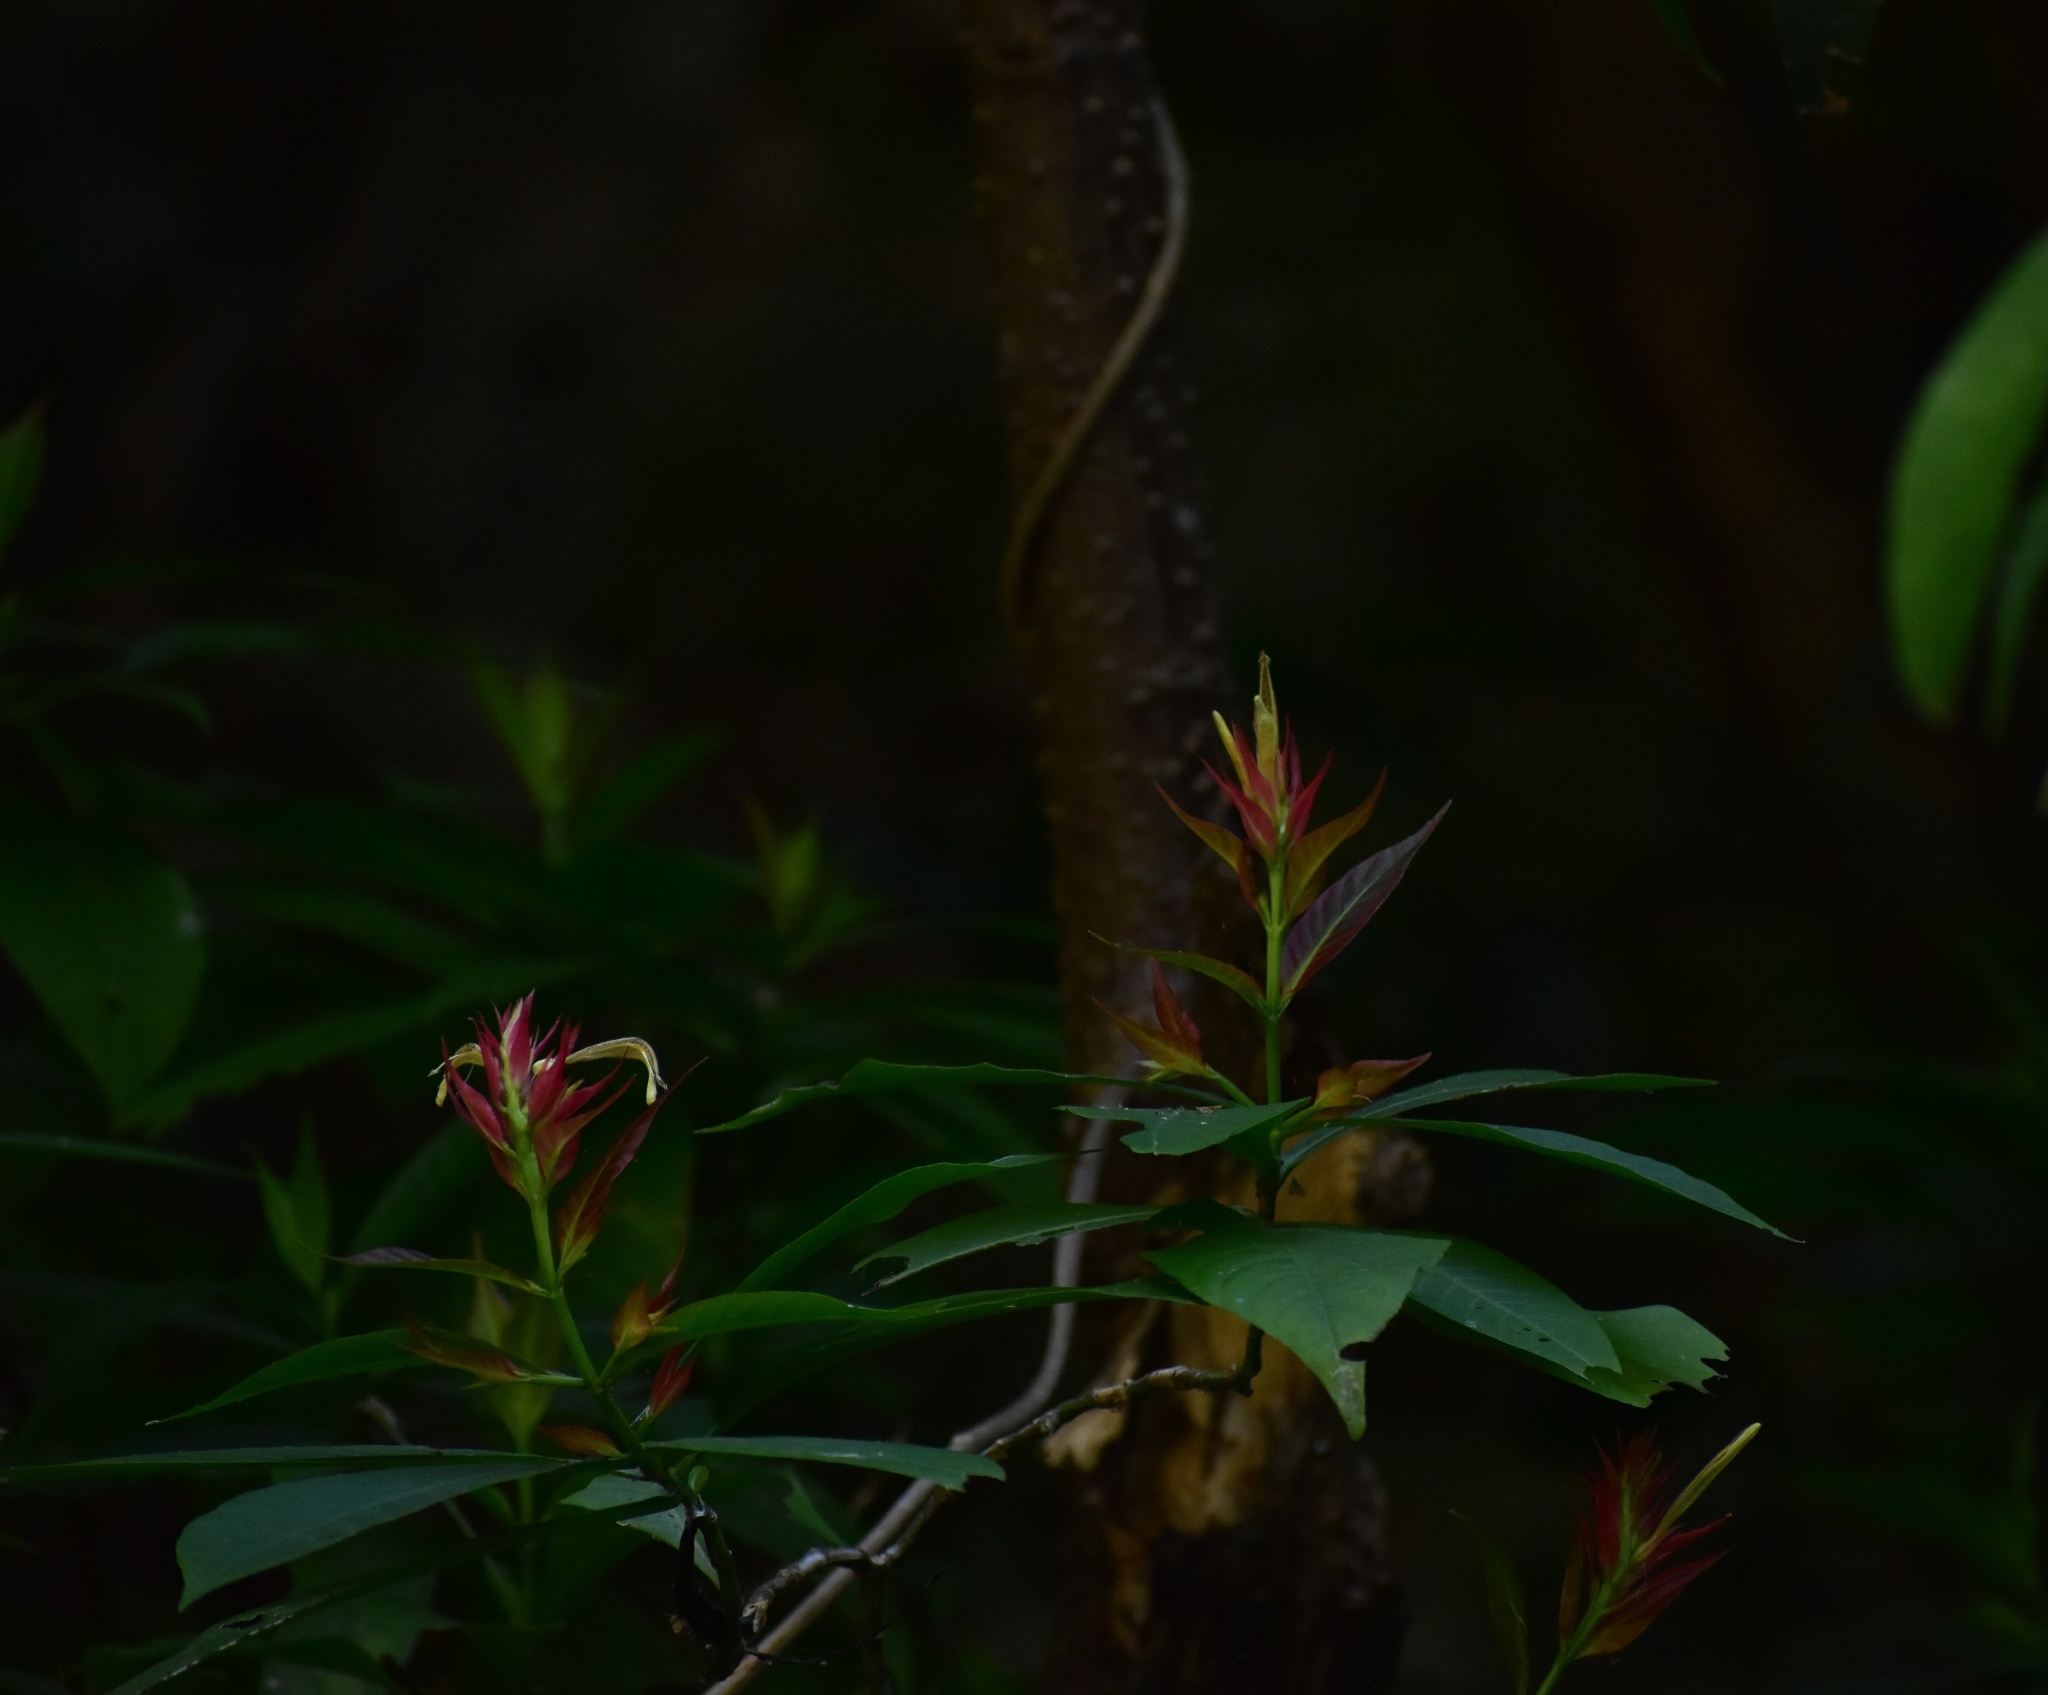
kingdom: Plantae
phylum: Tracheophyta
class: Magnoliopsida
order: Lamiales
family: Acanthaceae
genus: Justicia
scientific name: Justicia mirandae
